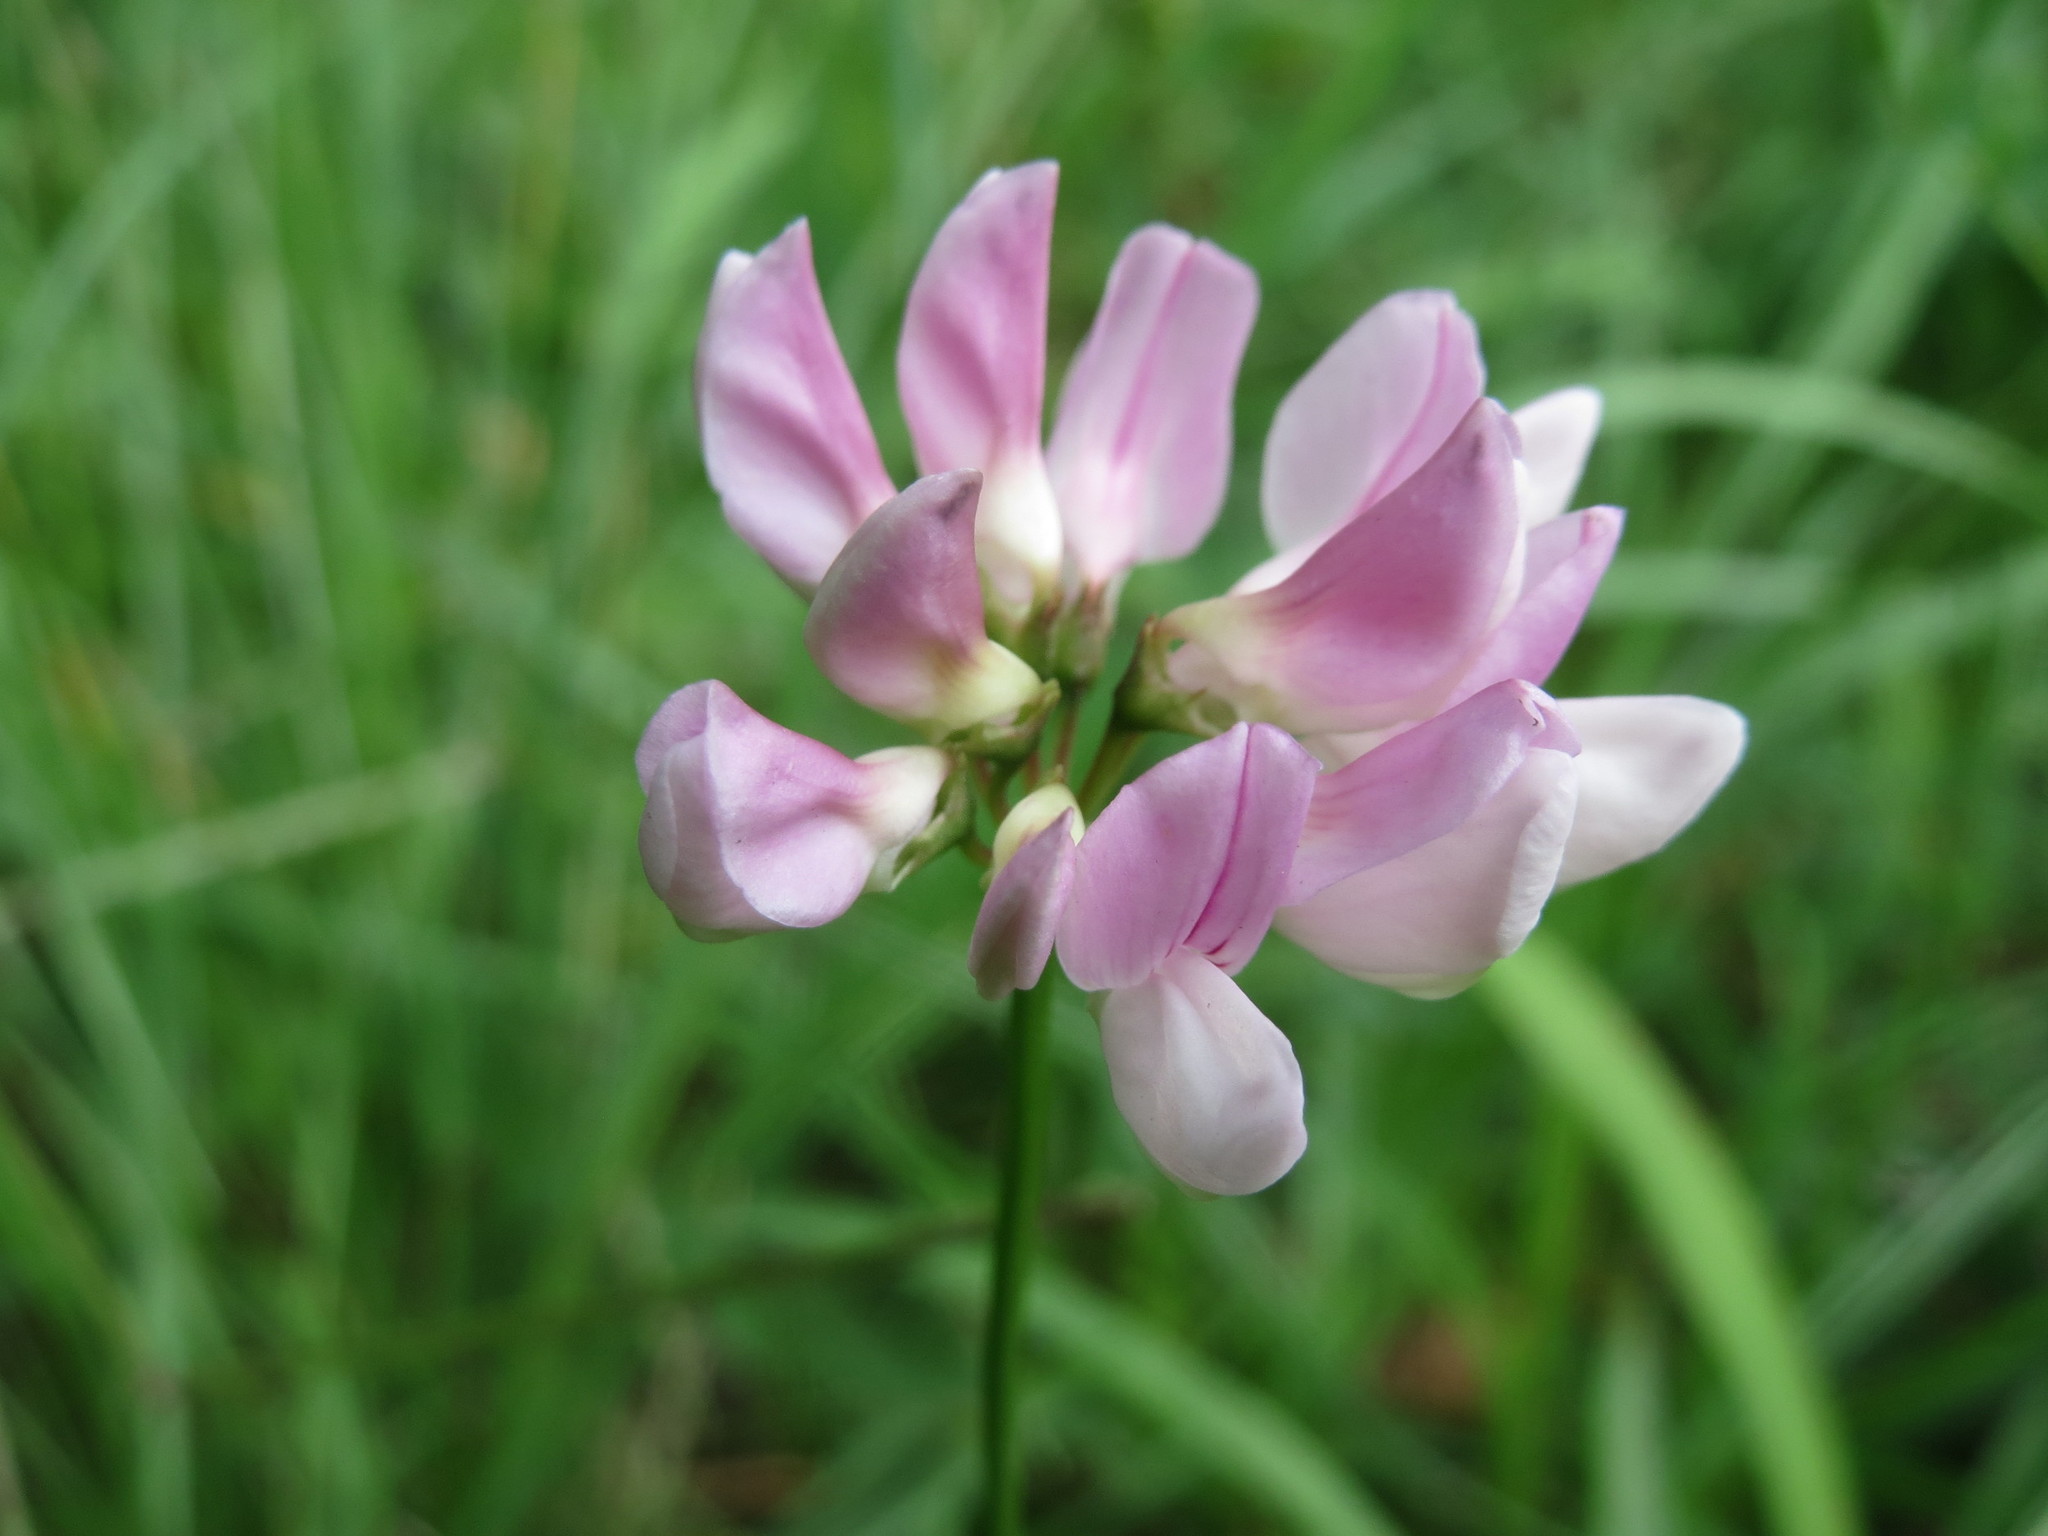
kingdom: Plantae
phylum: Tracheophyta
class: Magnoliopsida
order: Fabales
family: Fabaceae
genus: Coronilla
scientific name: Coronilla varia
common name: Crownvetch
